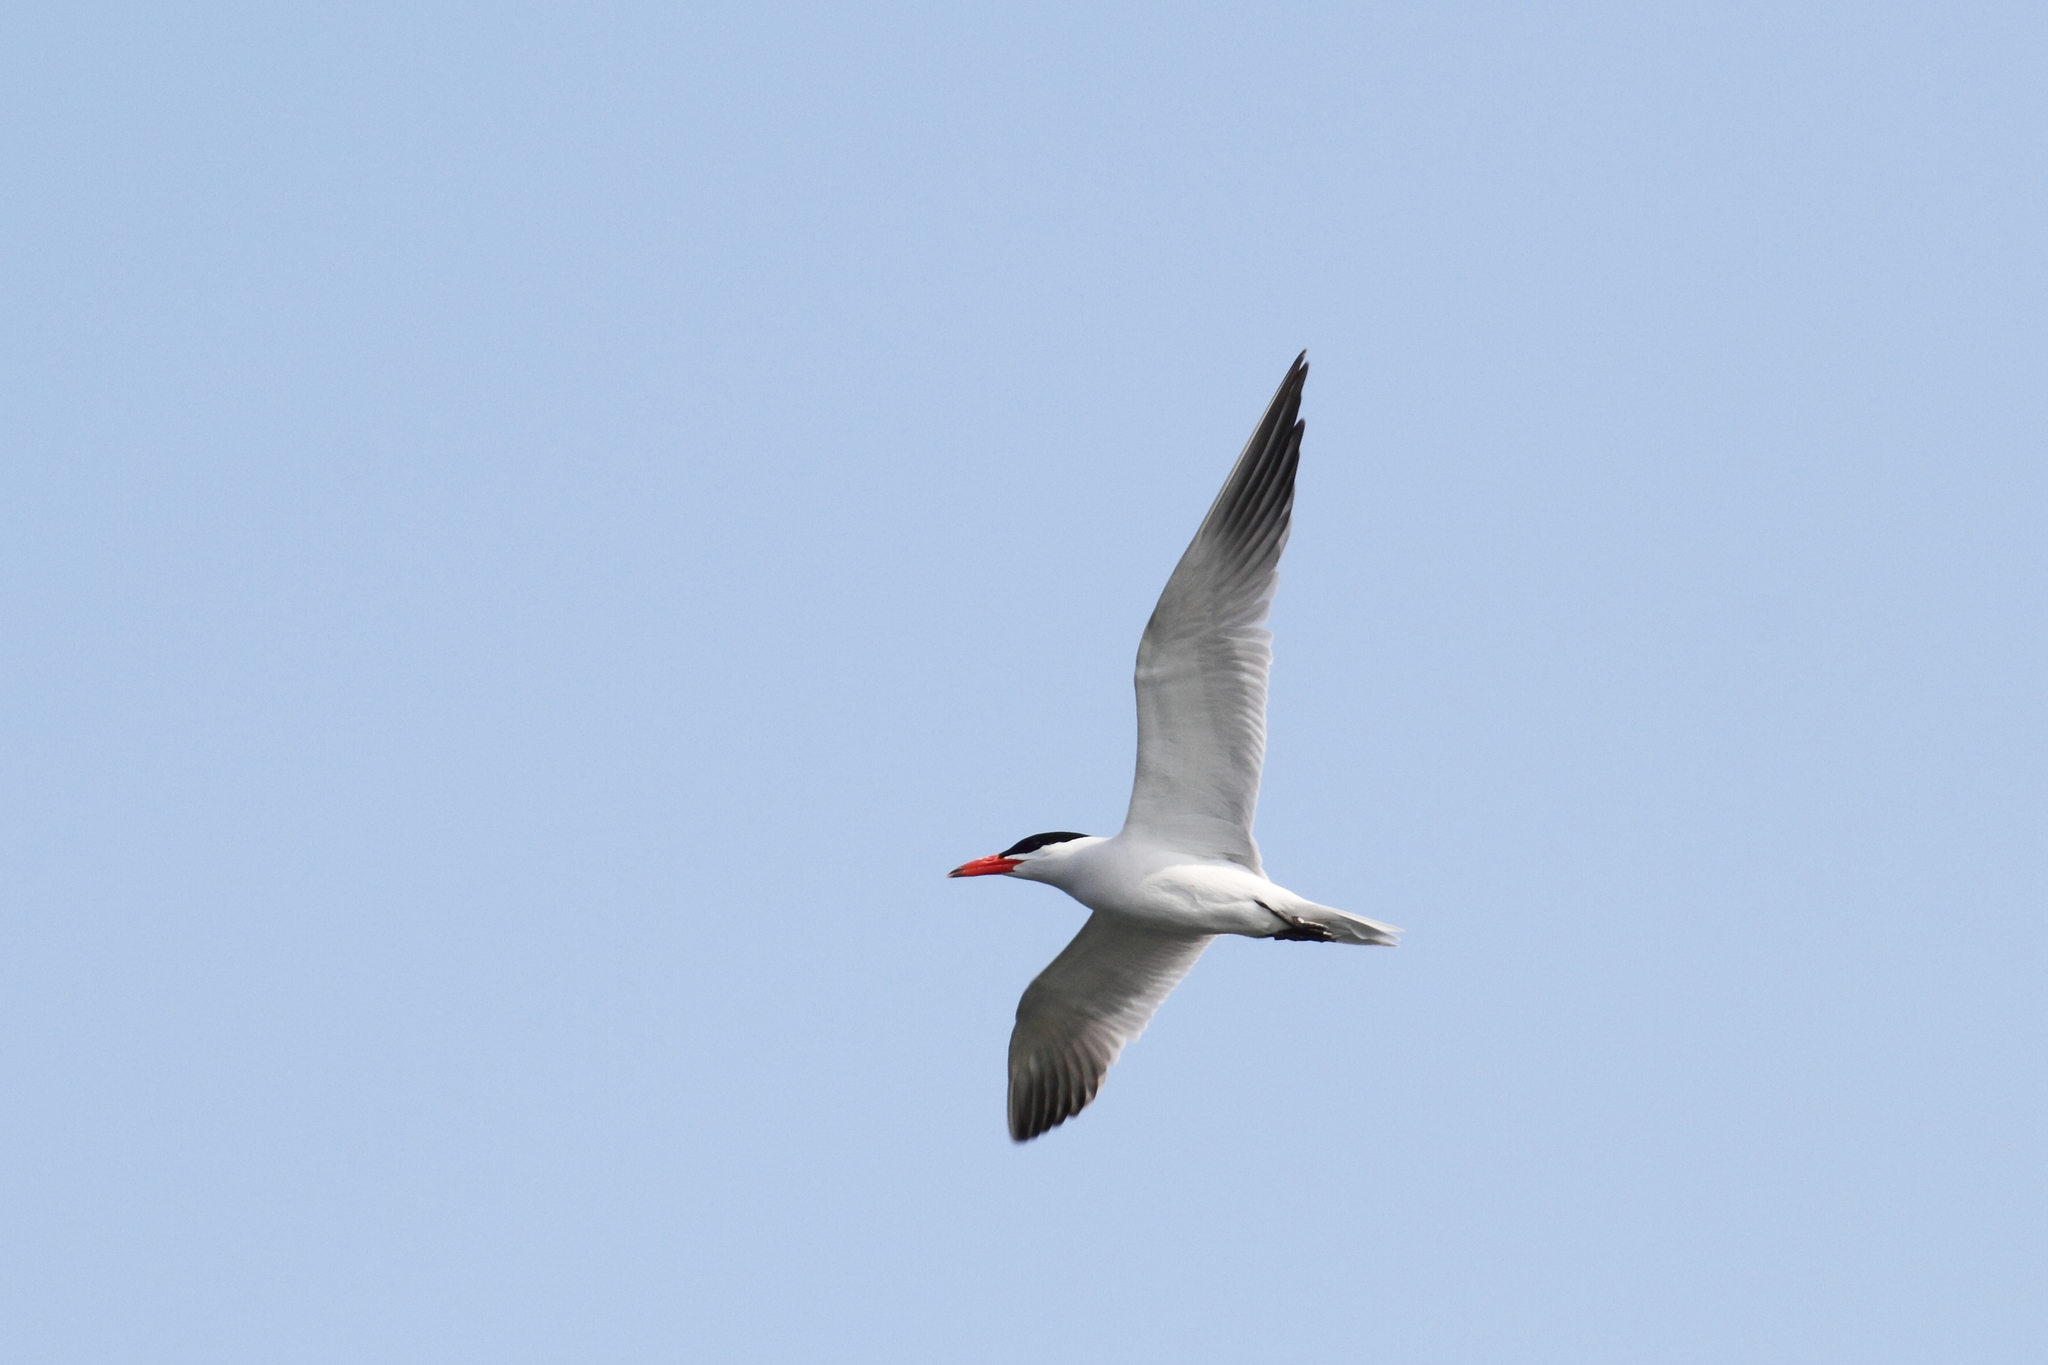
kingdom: Animalia
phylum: Chordata
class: Aves
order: Charadriiformes
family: Laridae
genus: Hydroprogne
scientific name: Hydroprogne caspia
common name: Caspian tern
